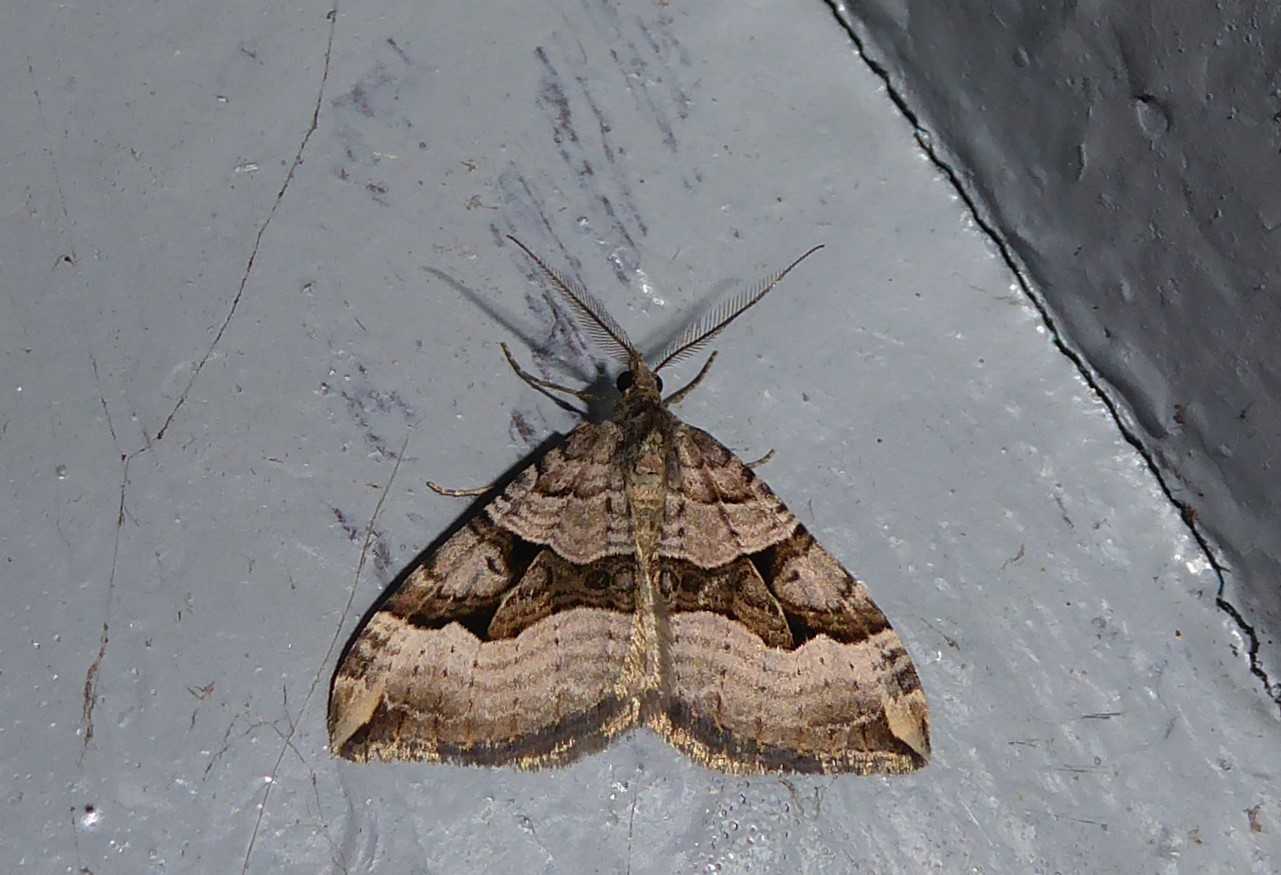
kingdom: Animalia
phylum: Arthropoda
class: Insecta
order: Lepidoptera
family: Geometridae
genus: Xanthorhoe
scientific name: Xanthorhoe semifissata
